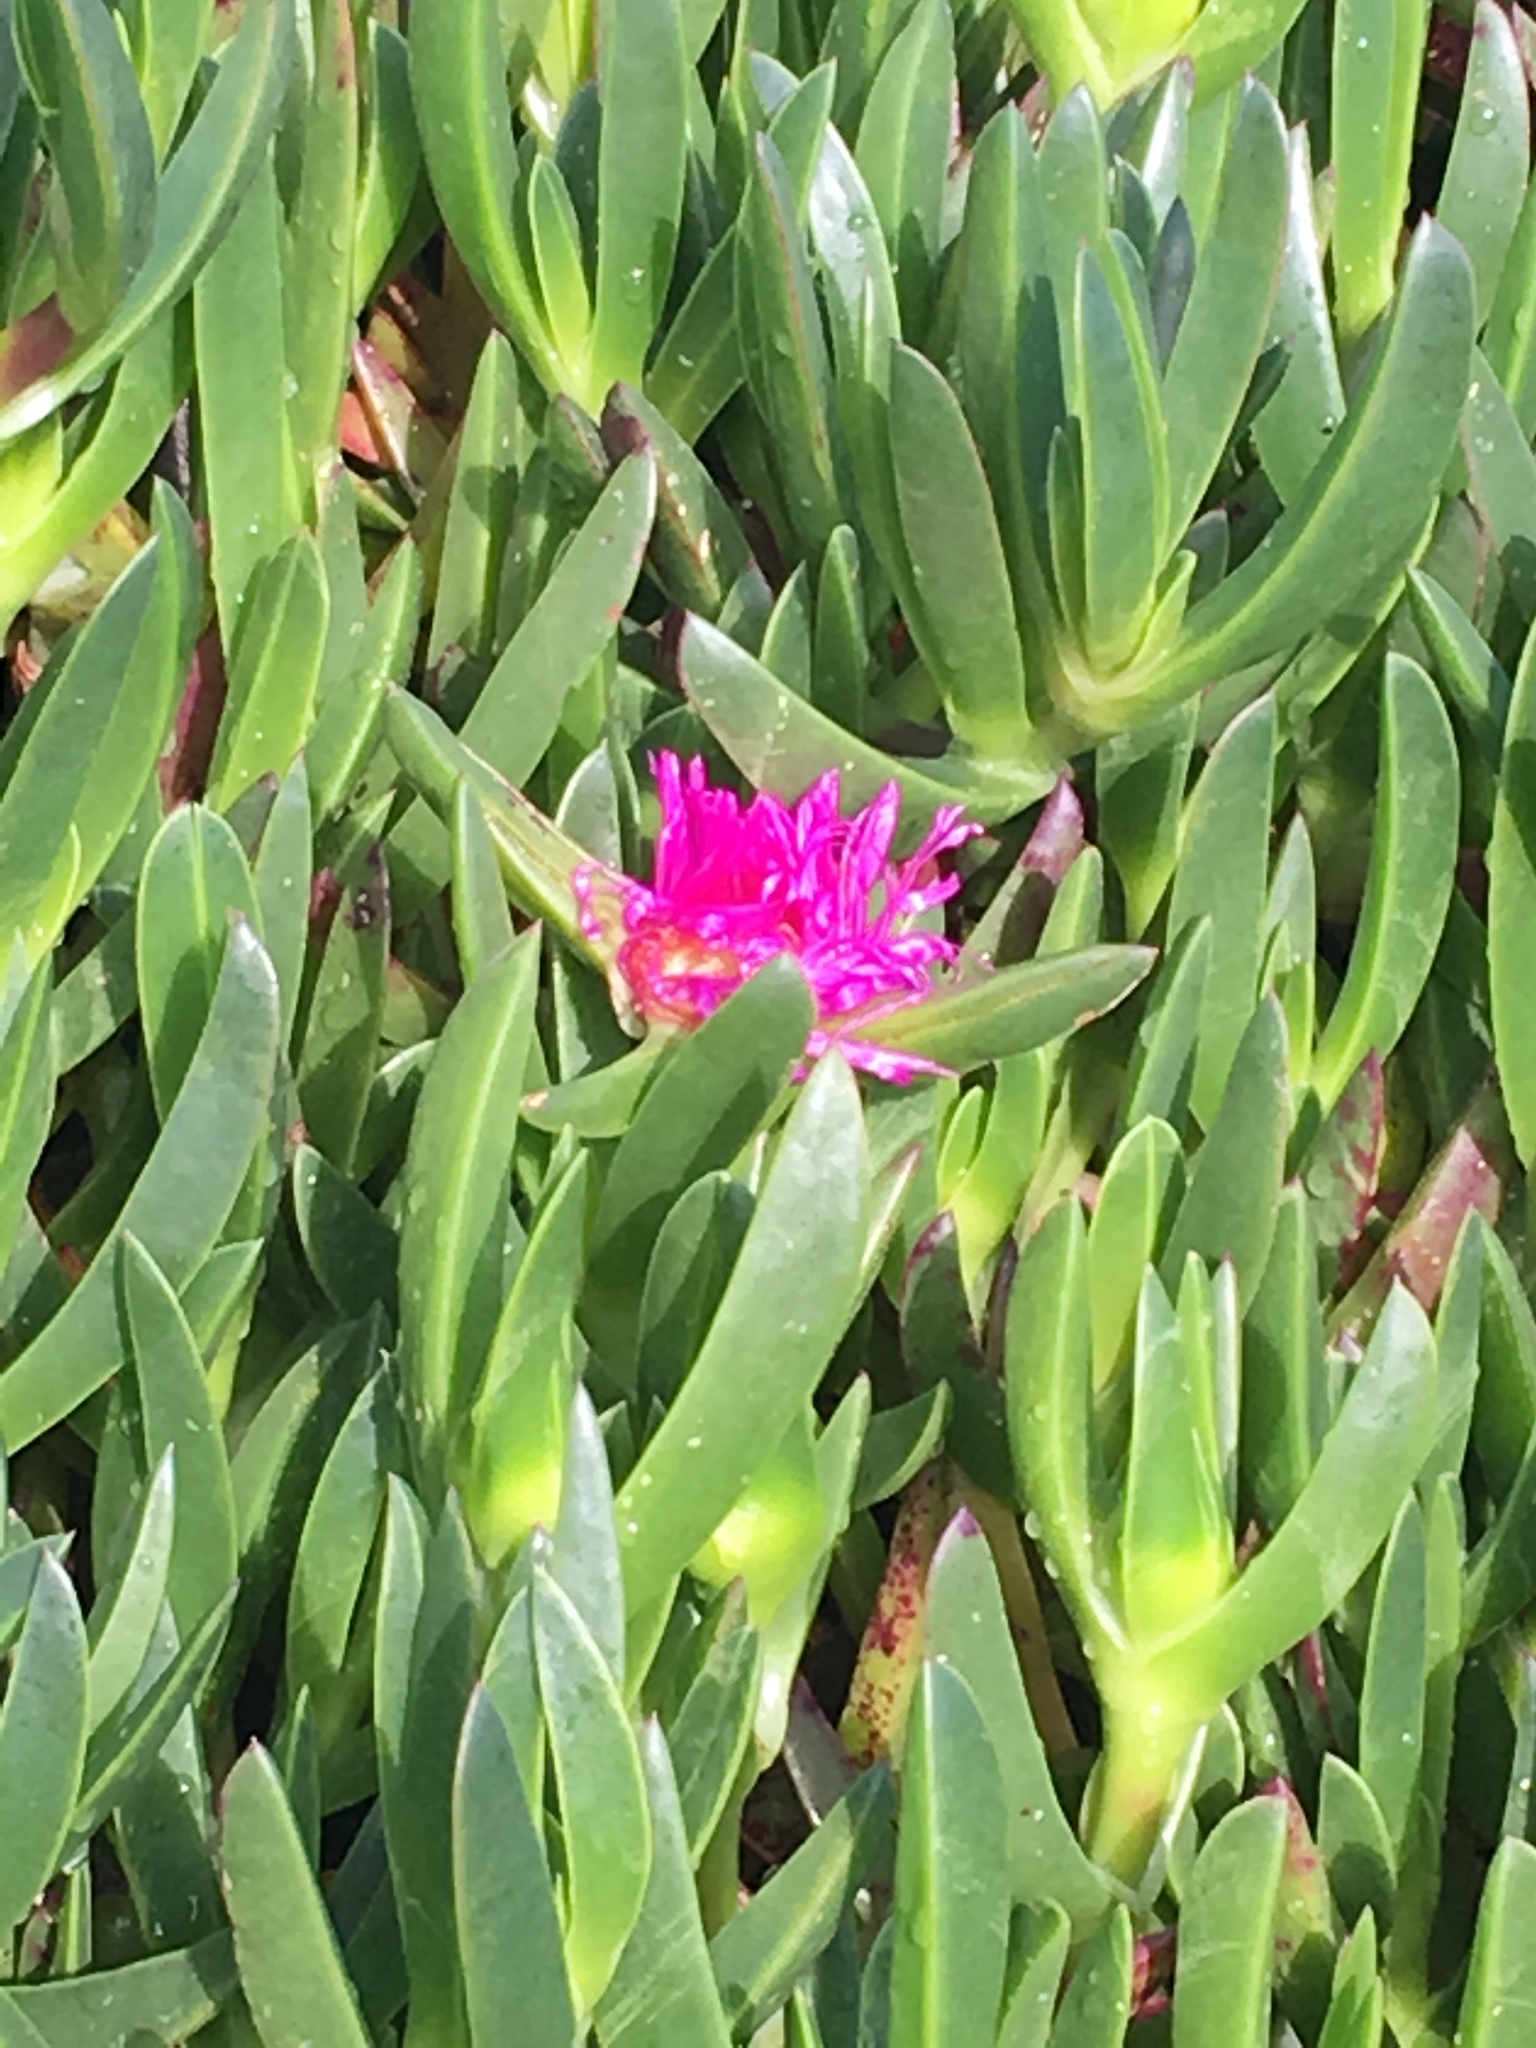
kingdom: Plantae
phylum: Tracheophyta
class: Magnoliopsida
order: Caryophyllales
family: Aizoaceae
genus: Carpobrotus
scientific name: Carpobrotus acinaciformis
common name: Sally-my-handsome
